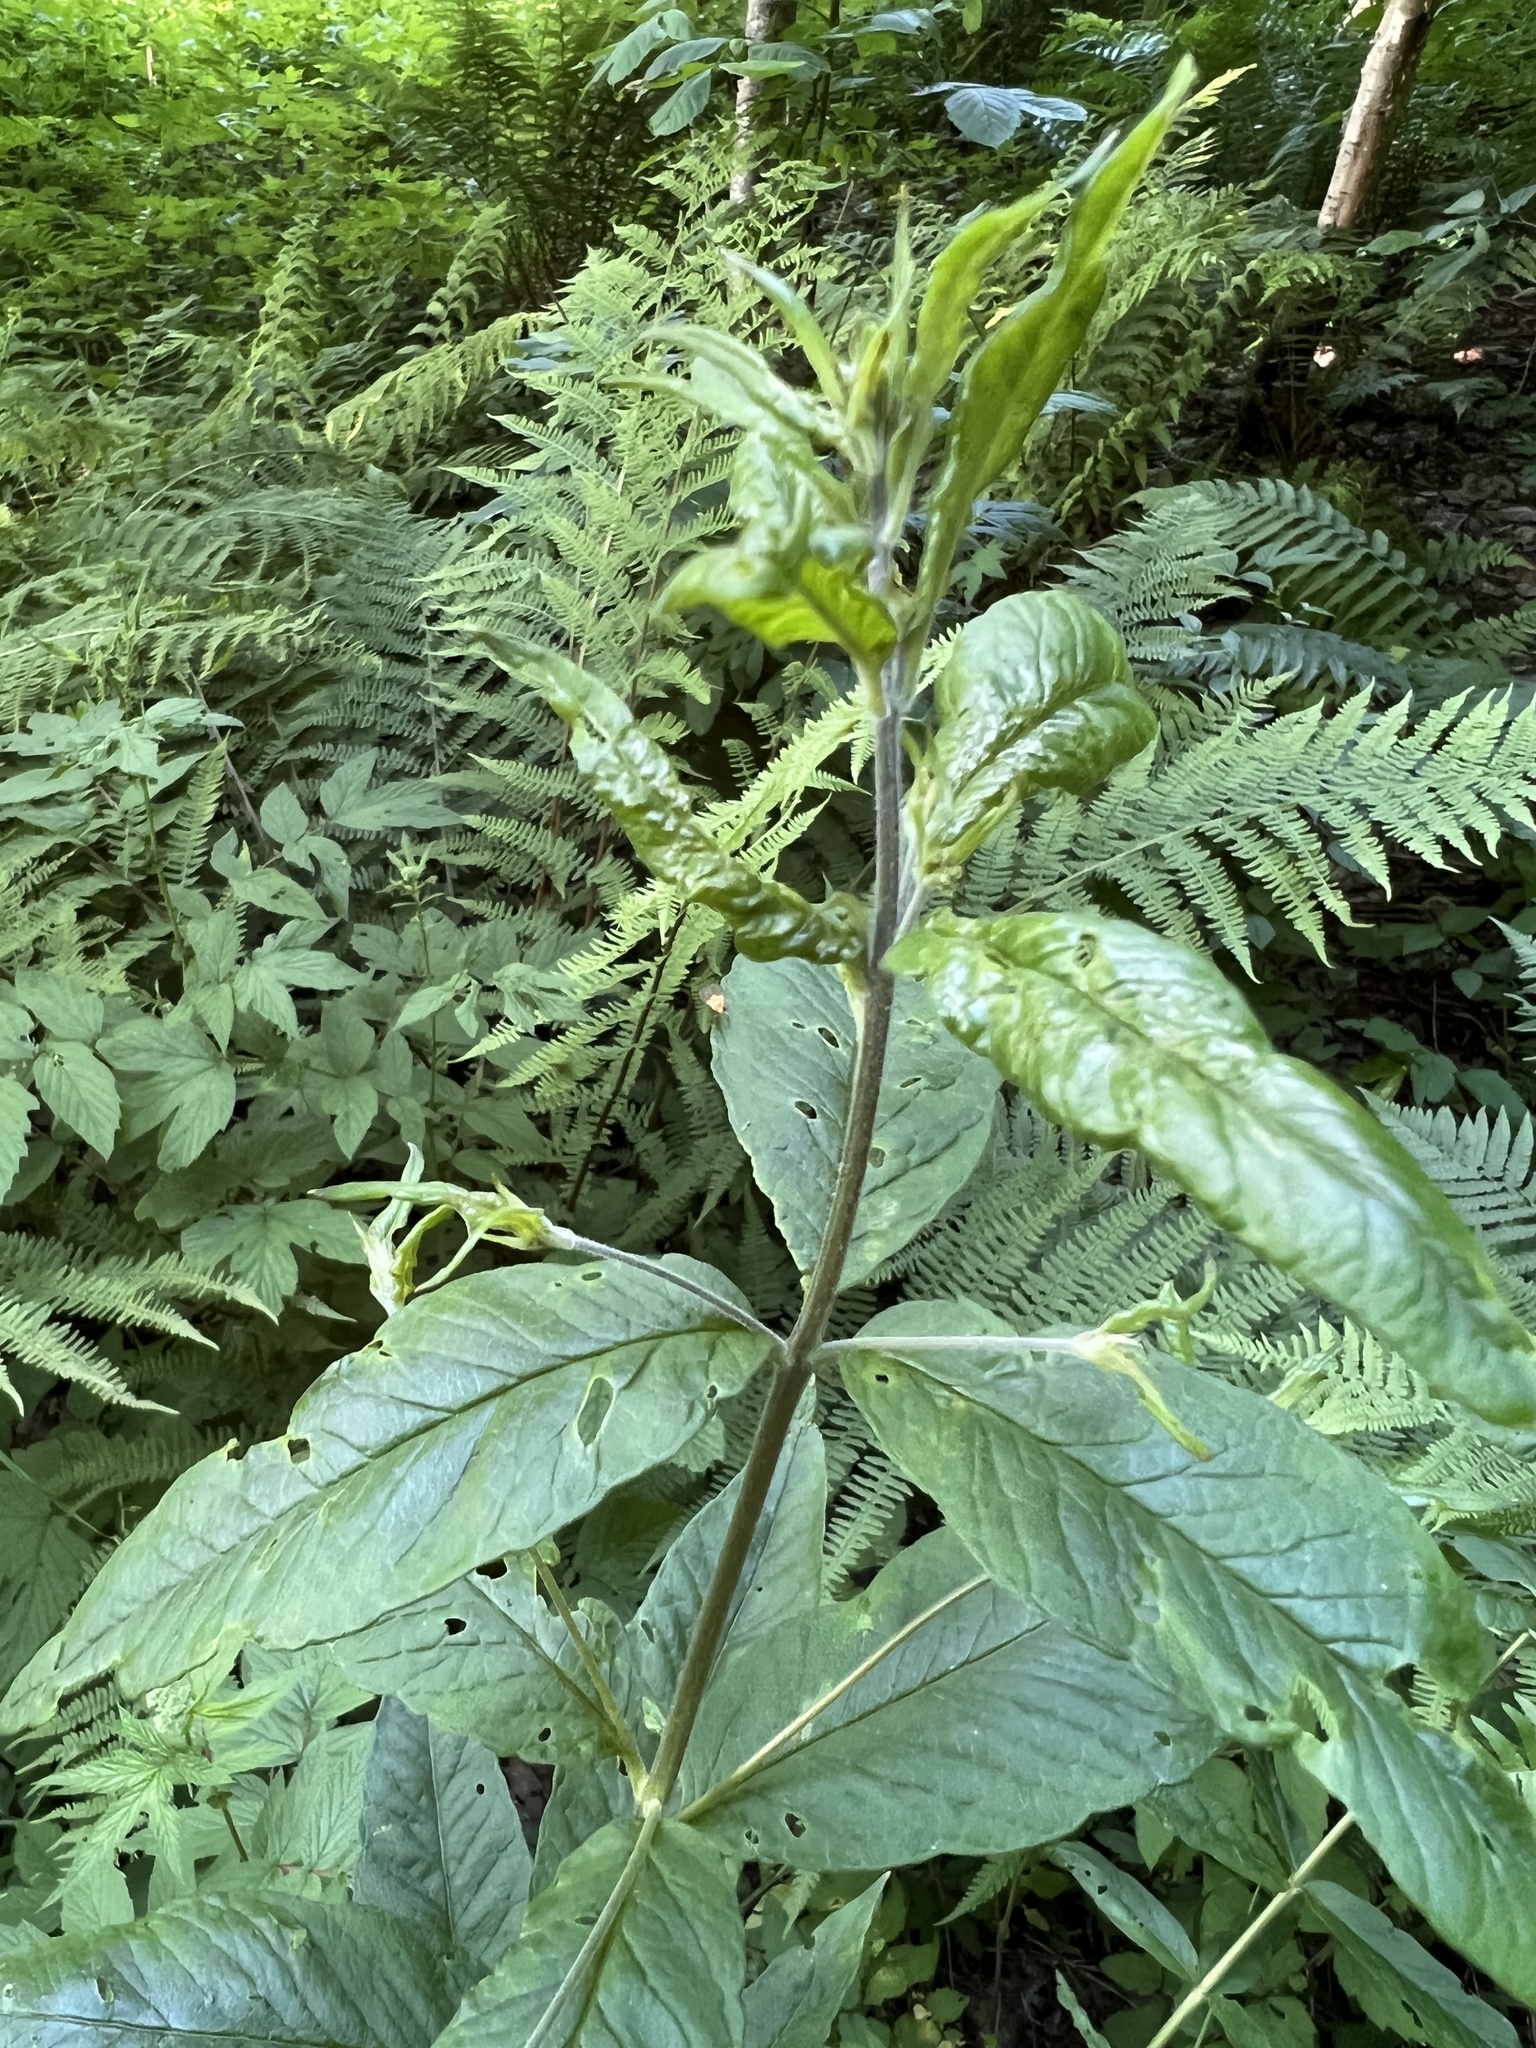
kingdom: Plantae
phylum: Tracheophyta
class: Magnoliopsida
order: Ericales
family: Primulaceae
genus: Lysimachia
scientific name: Lysimachia vulgaris
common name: Yellow loosestrife
